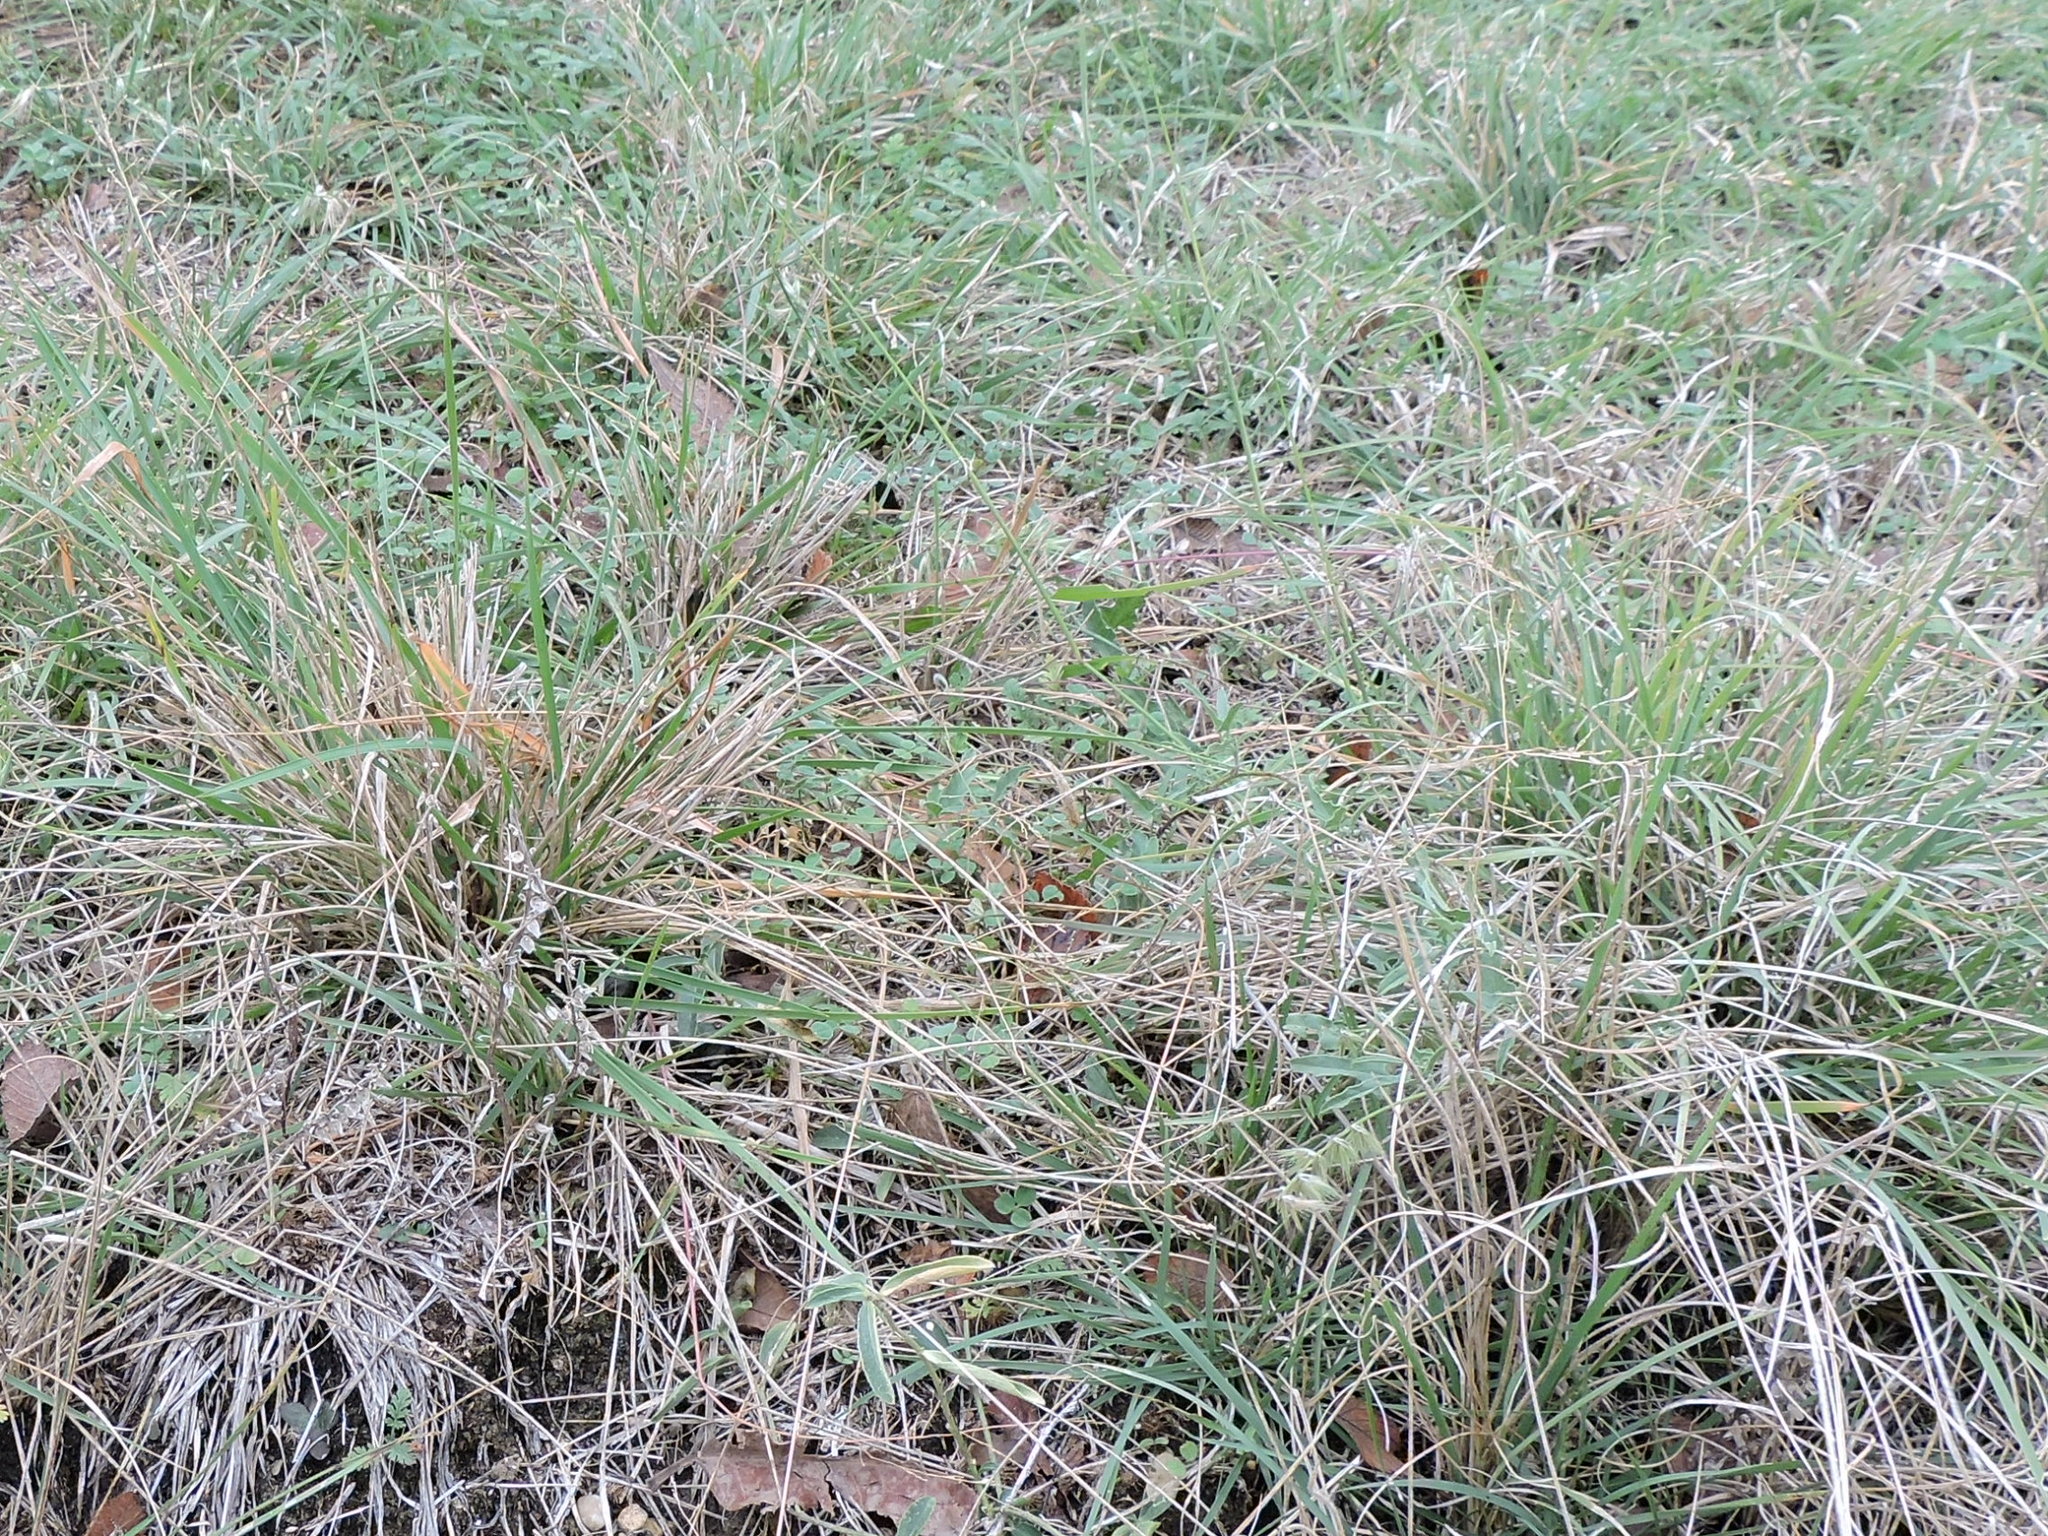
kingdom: Plantae
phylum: Tracheophyta
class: Liliopsida
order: Poales
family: Poaceae
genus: Bouteloua
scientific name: Bouteloua rigidiseta
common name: Texas grama
